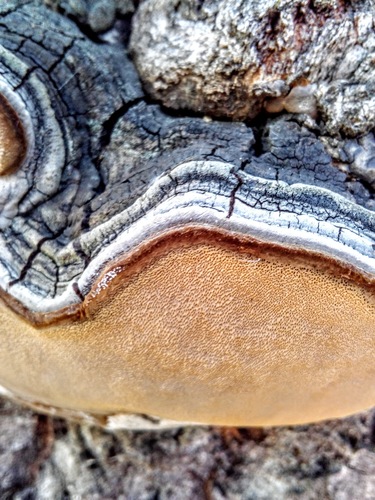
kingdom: Fungi
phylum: Basidiomycota
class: Agaricomycetes
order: Hymenochaetales
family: Hymenochaetaceae
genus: Phellinus
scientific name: Phellinus tremulae
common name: Aspen bracket
